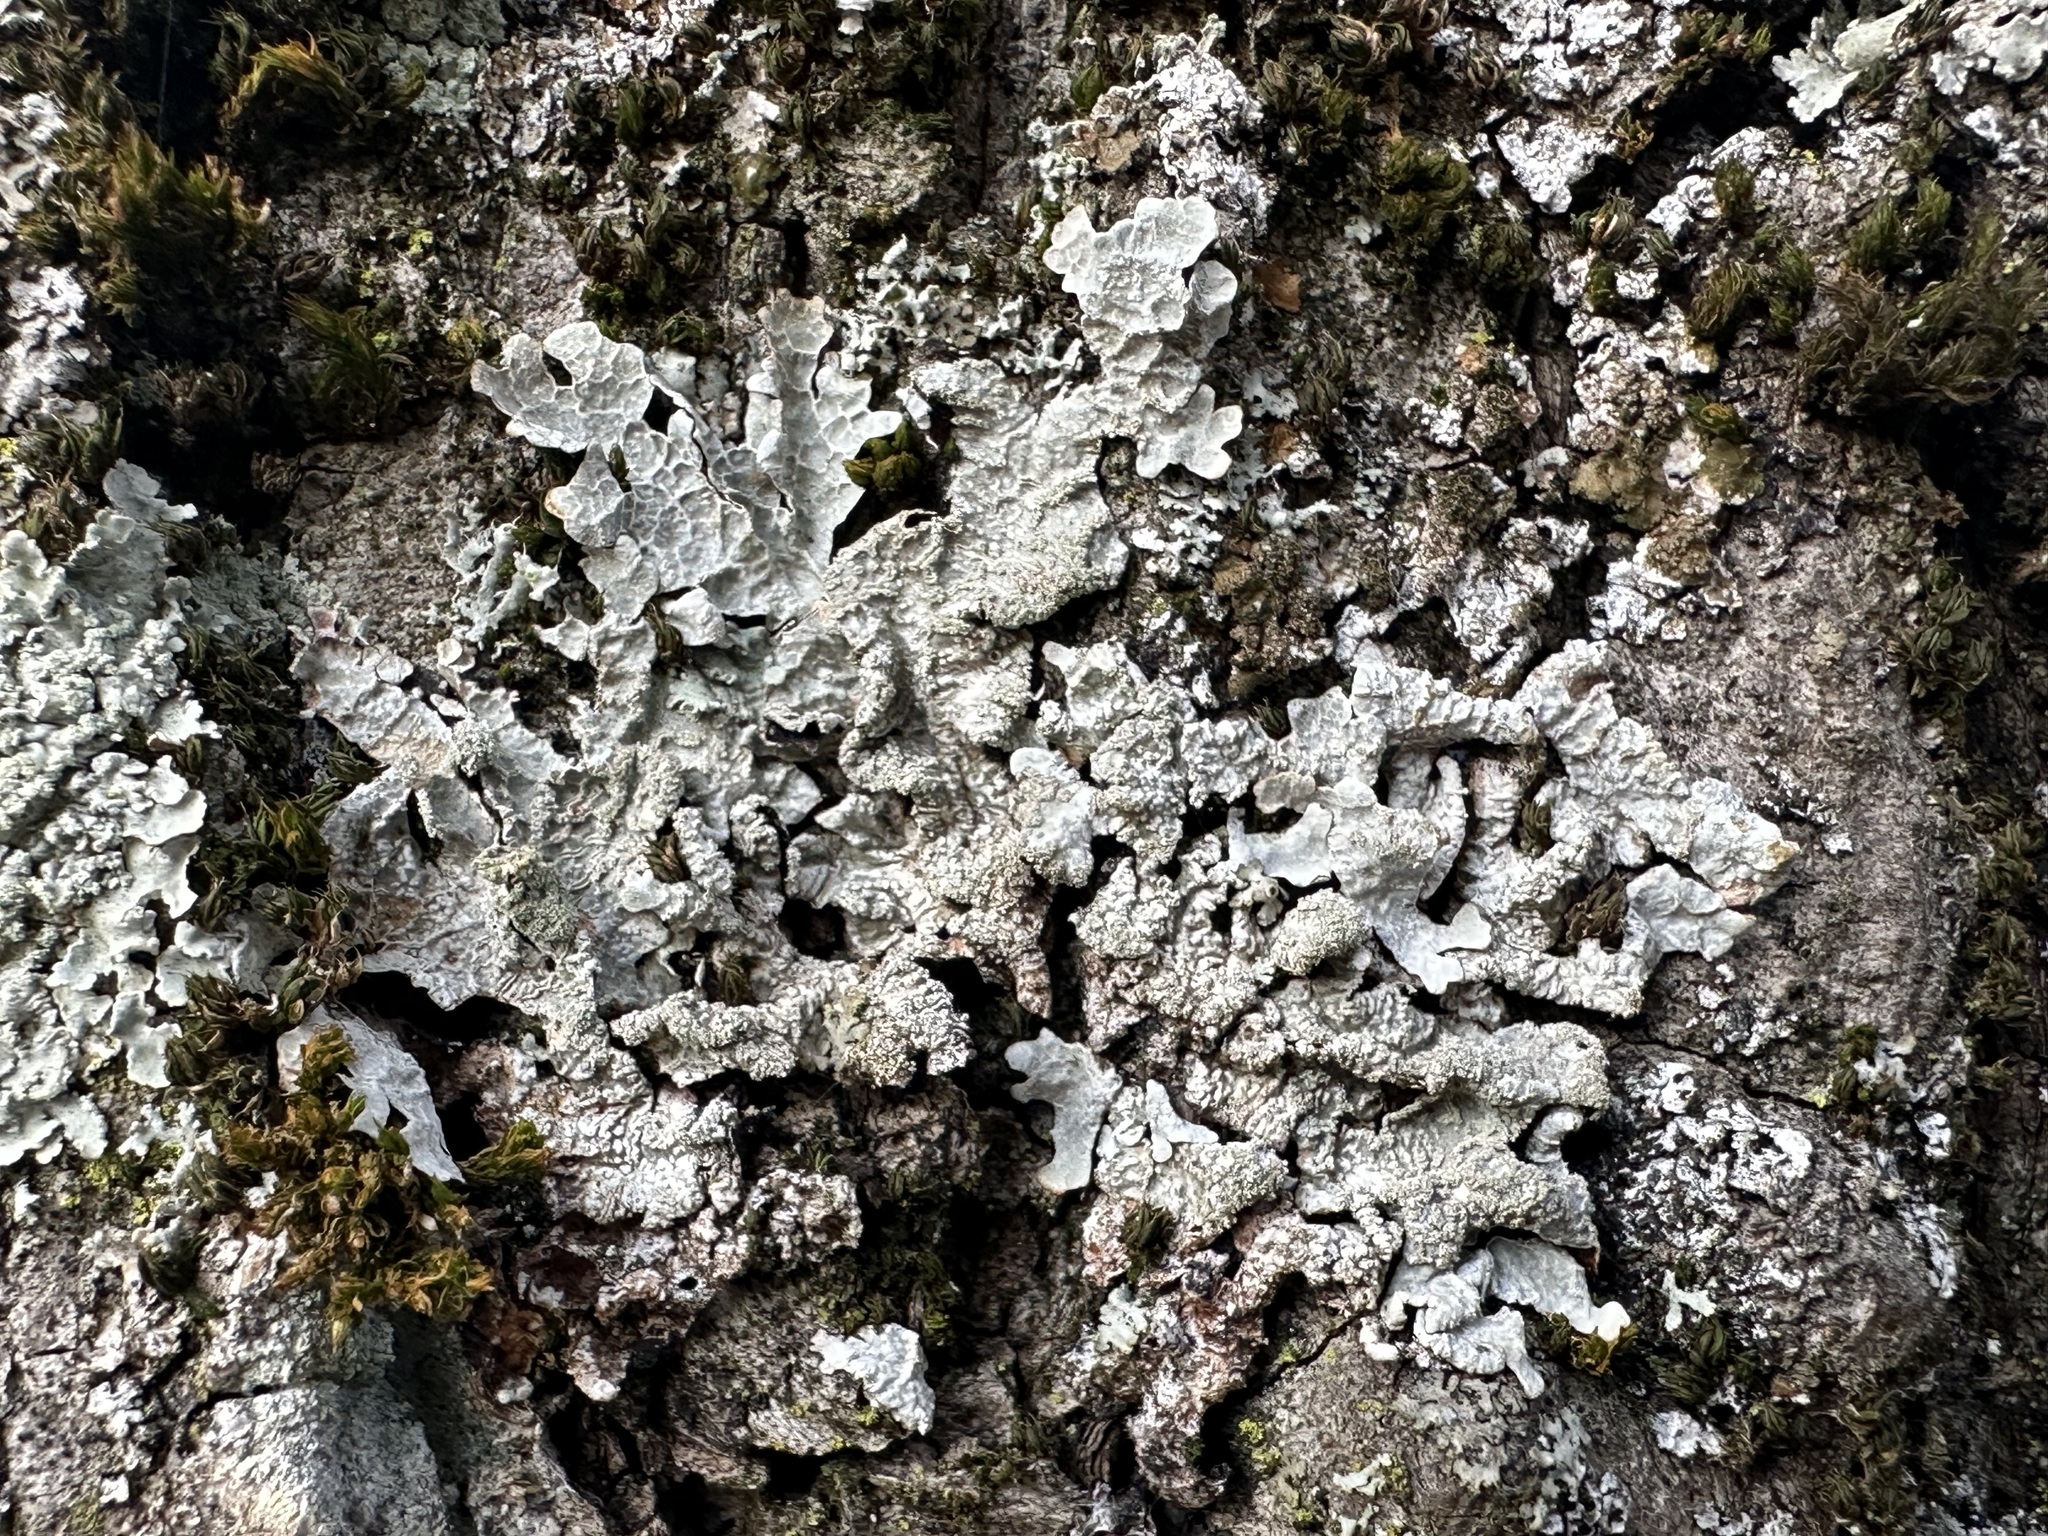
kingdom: Fungi
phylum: Ascomycota
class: Lecanoromycetes
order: Lecanorales
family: Parmeliaceae
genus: Parmelia
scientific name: Parmelia sulcata
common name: Netted shield lichen
